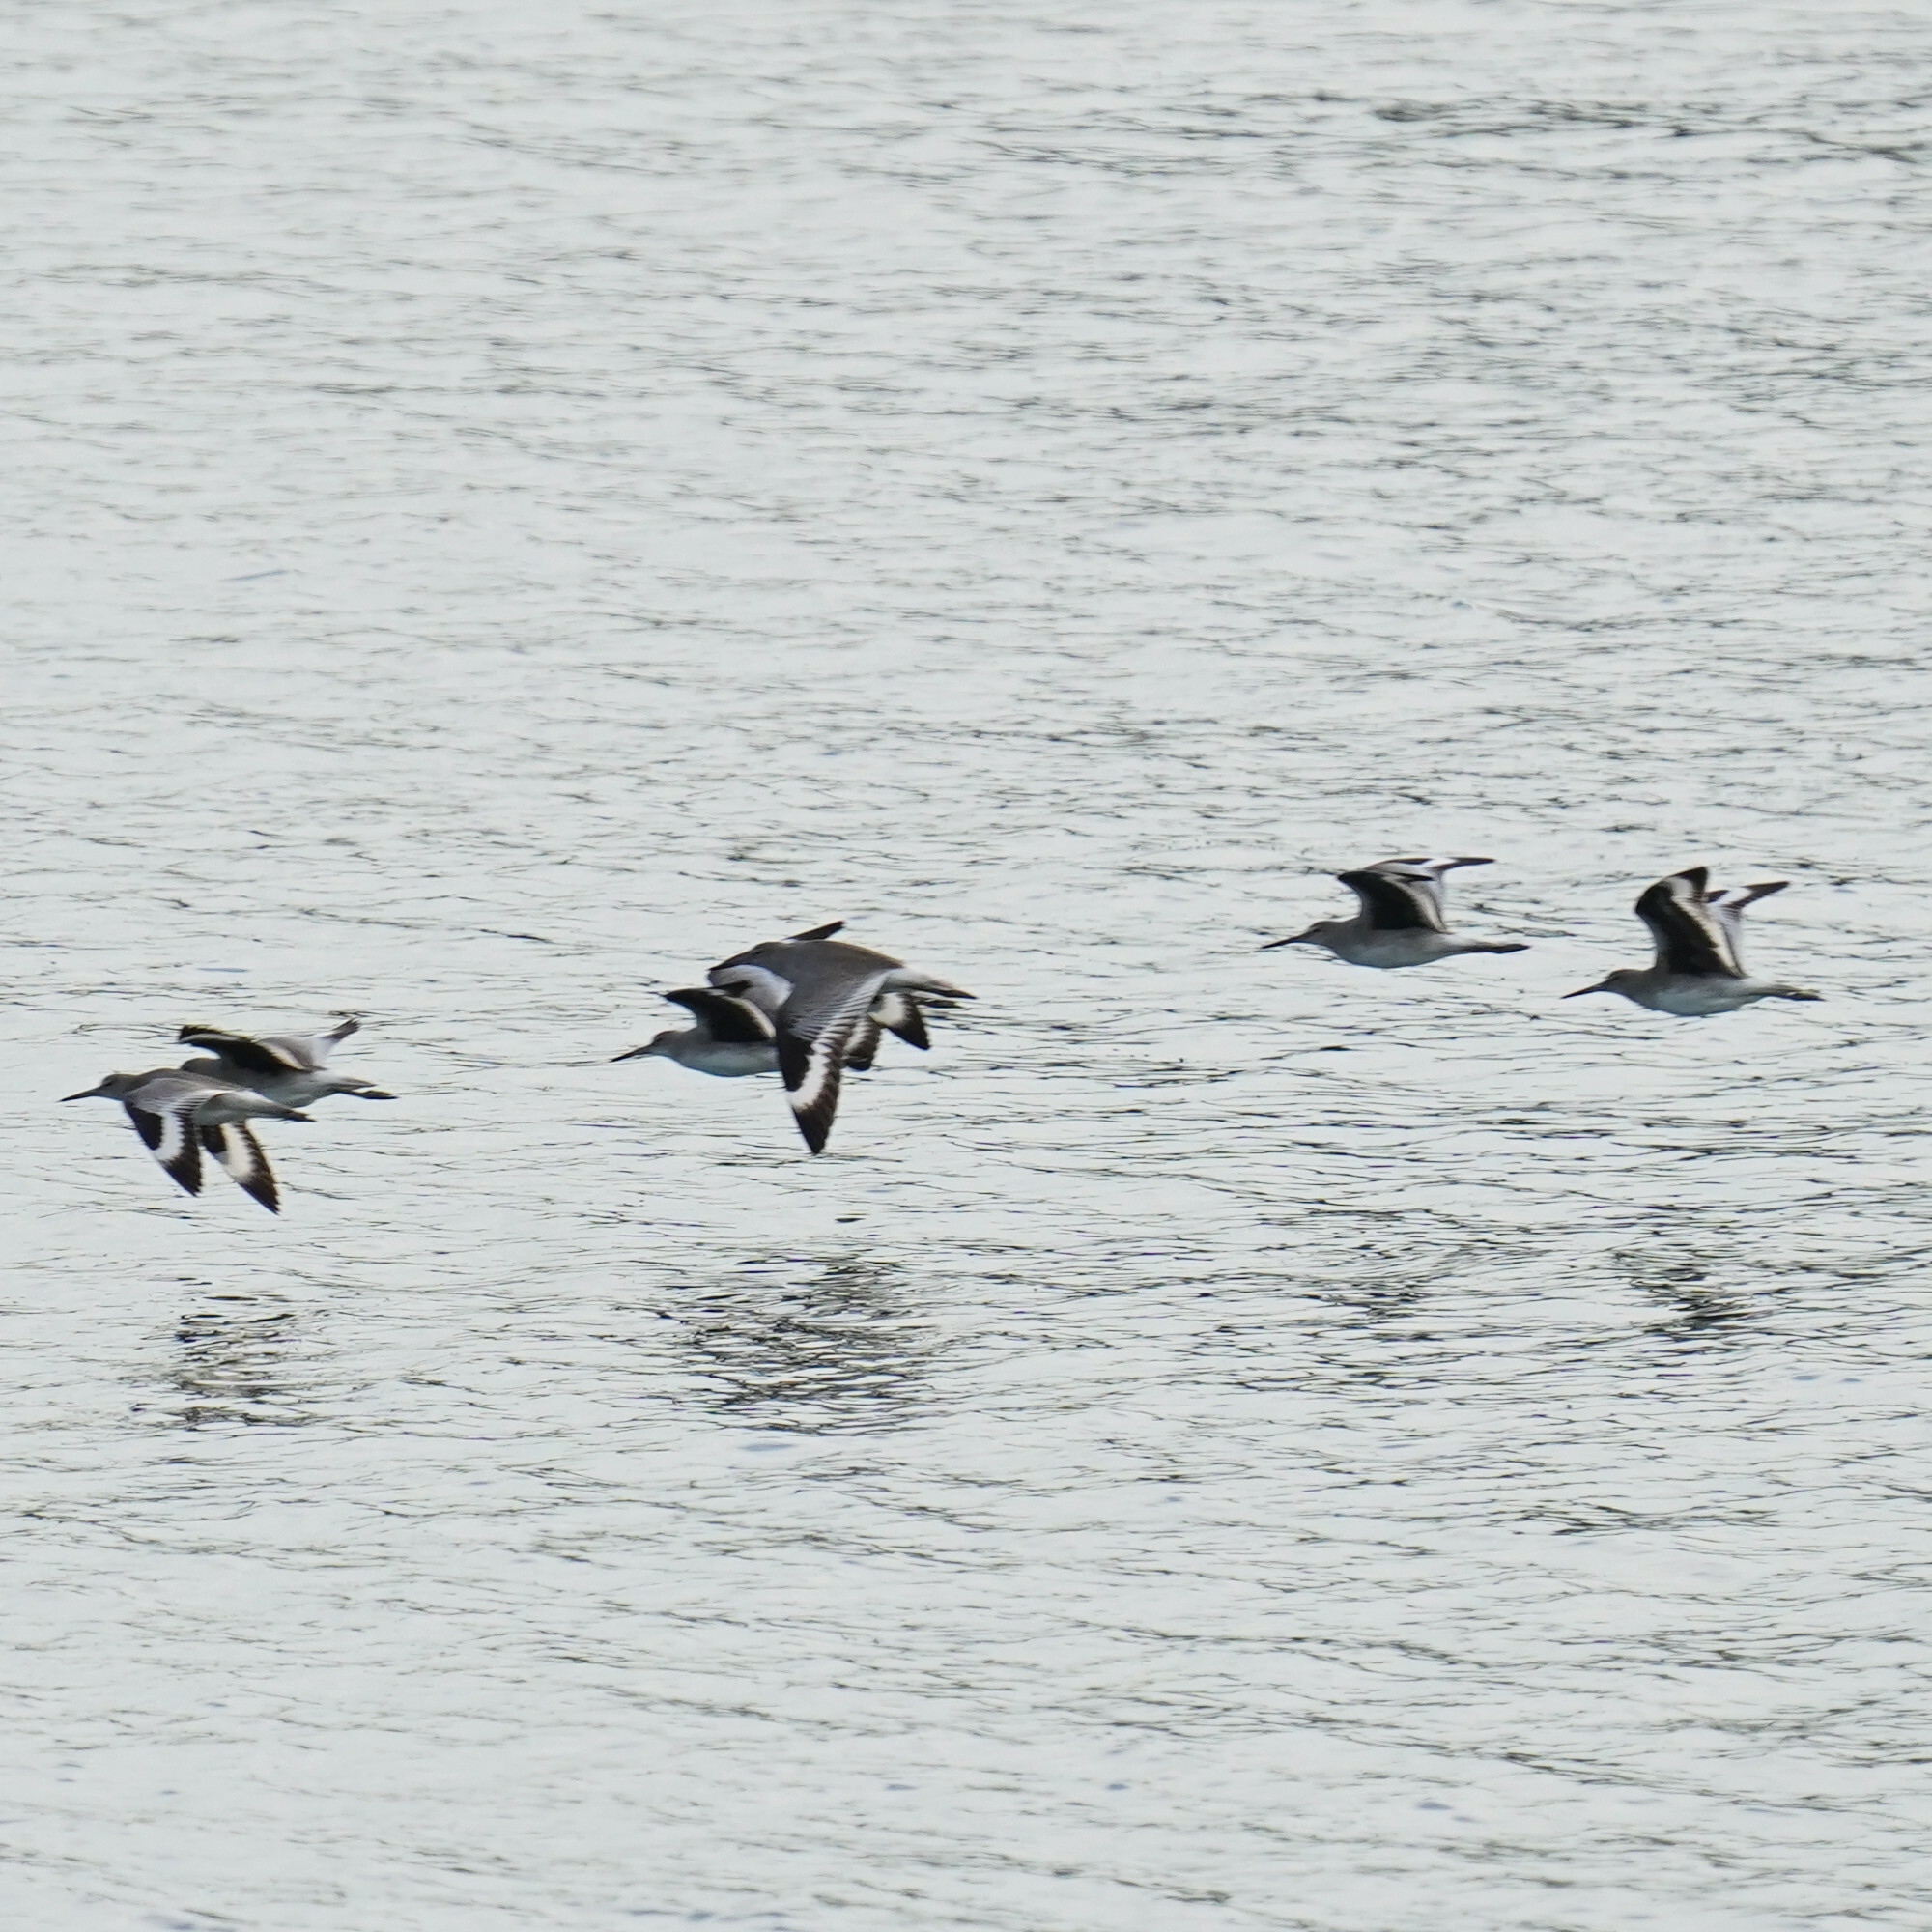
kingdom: Animalia
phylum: Chordata
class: Aves
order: Charadriiformes
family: Scolopacidae
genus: Tringa
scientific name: Tringa semipalmata
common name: Willet
